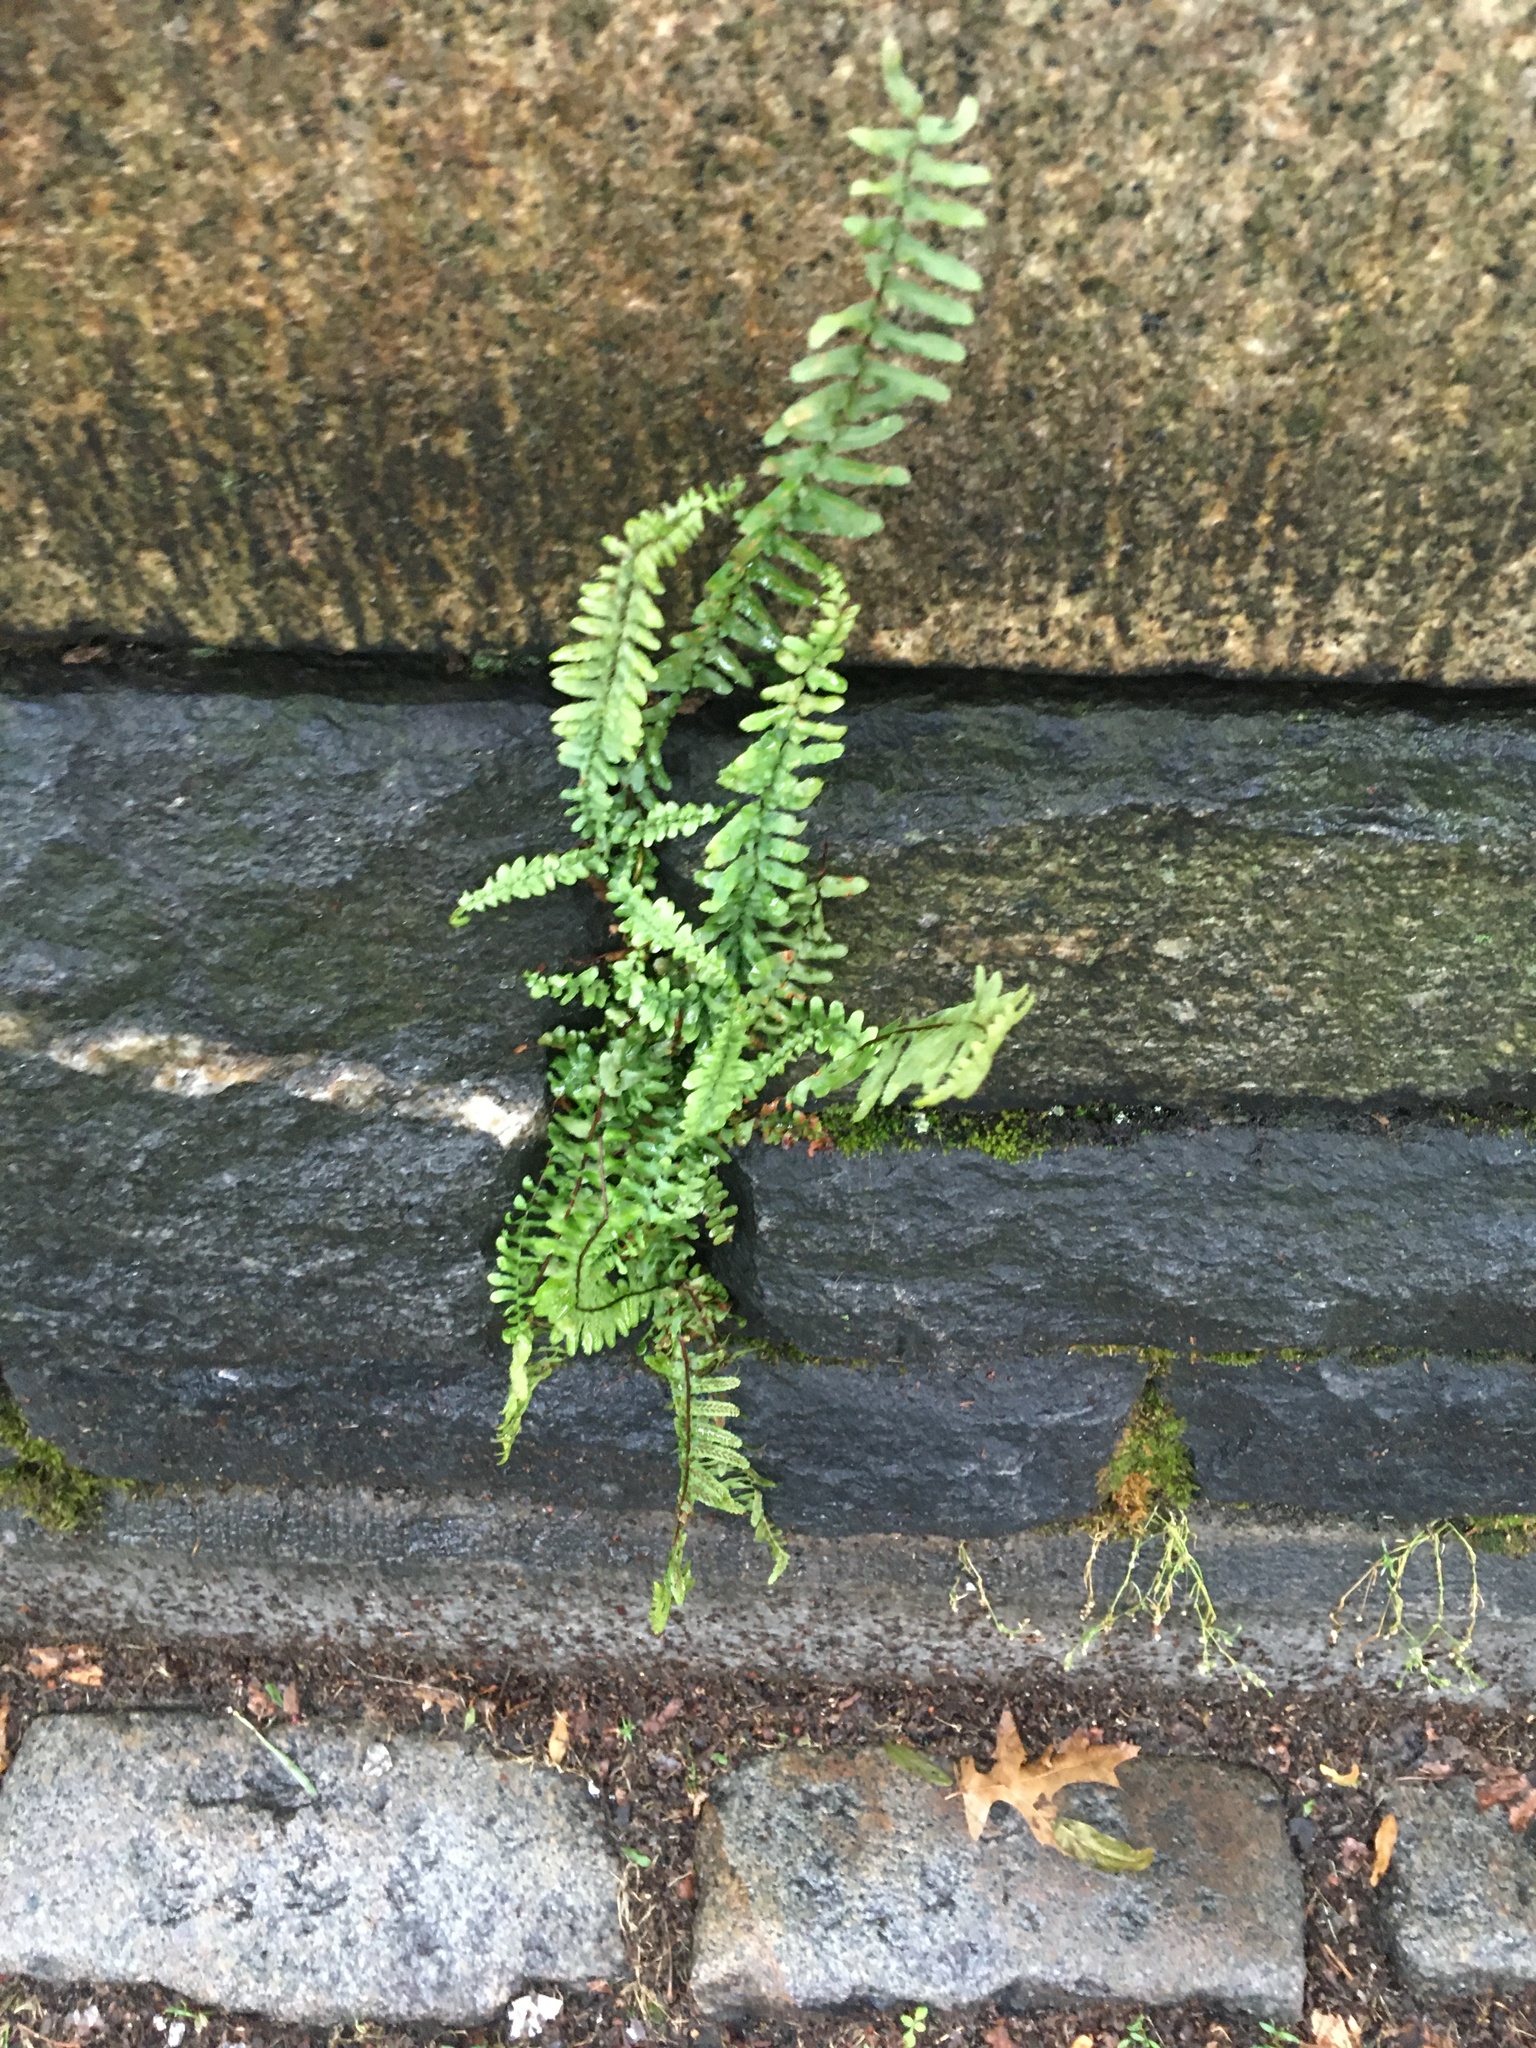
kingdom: Plantae
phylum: Tracheophyta
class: Polypodiopsida
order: Polypodiales
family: Aspleniaceae
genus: Asplenium
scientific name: Asplenium platyneuron
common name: Ebony spleenwort
